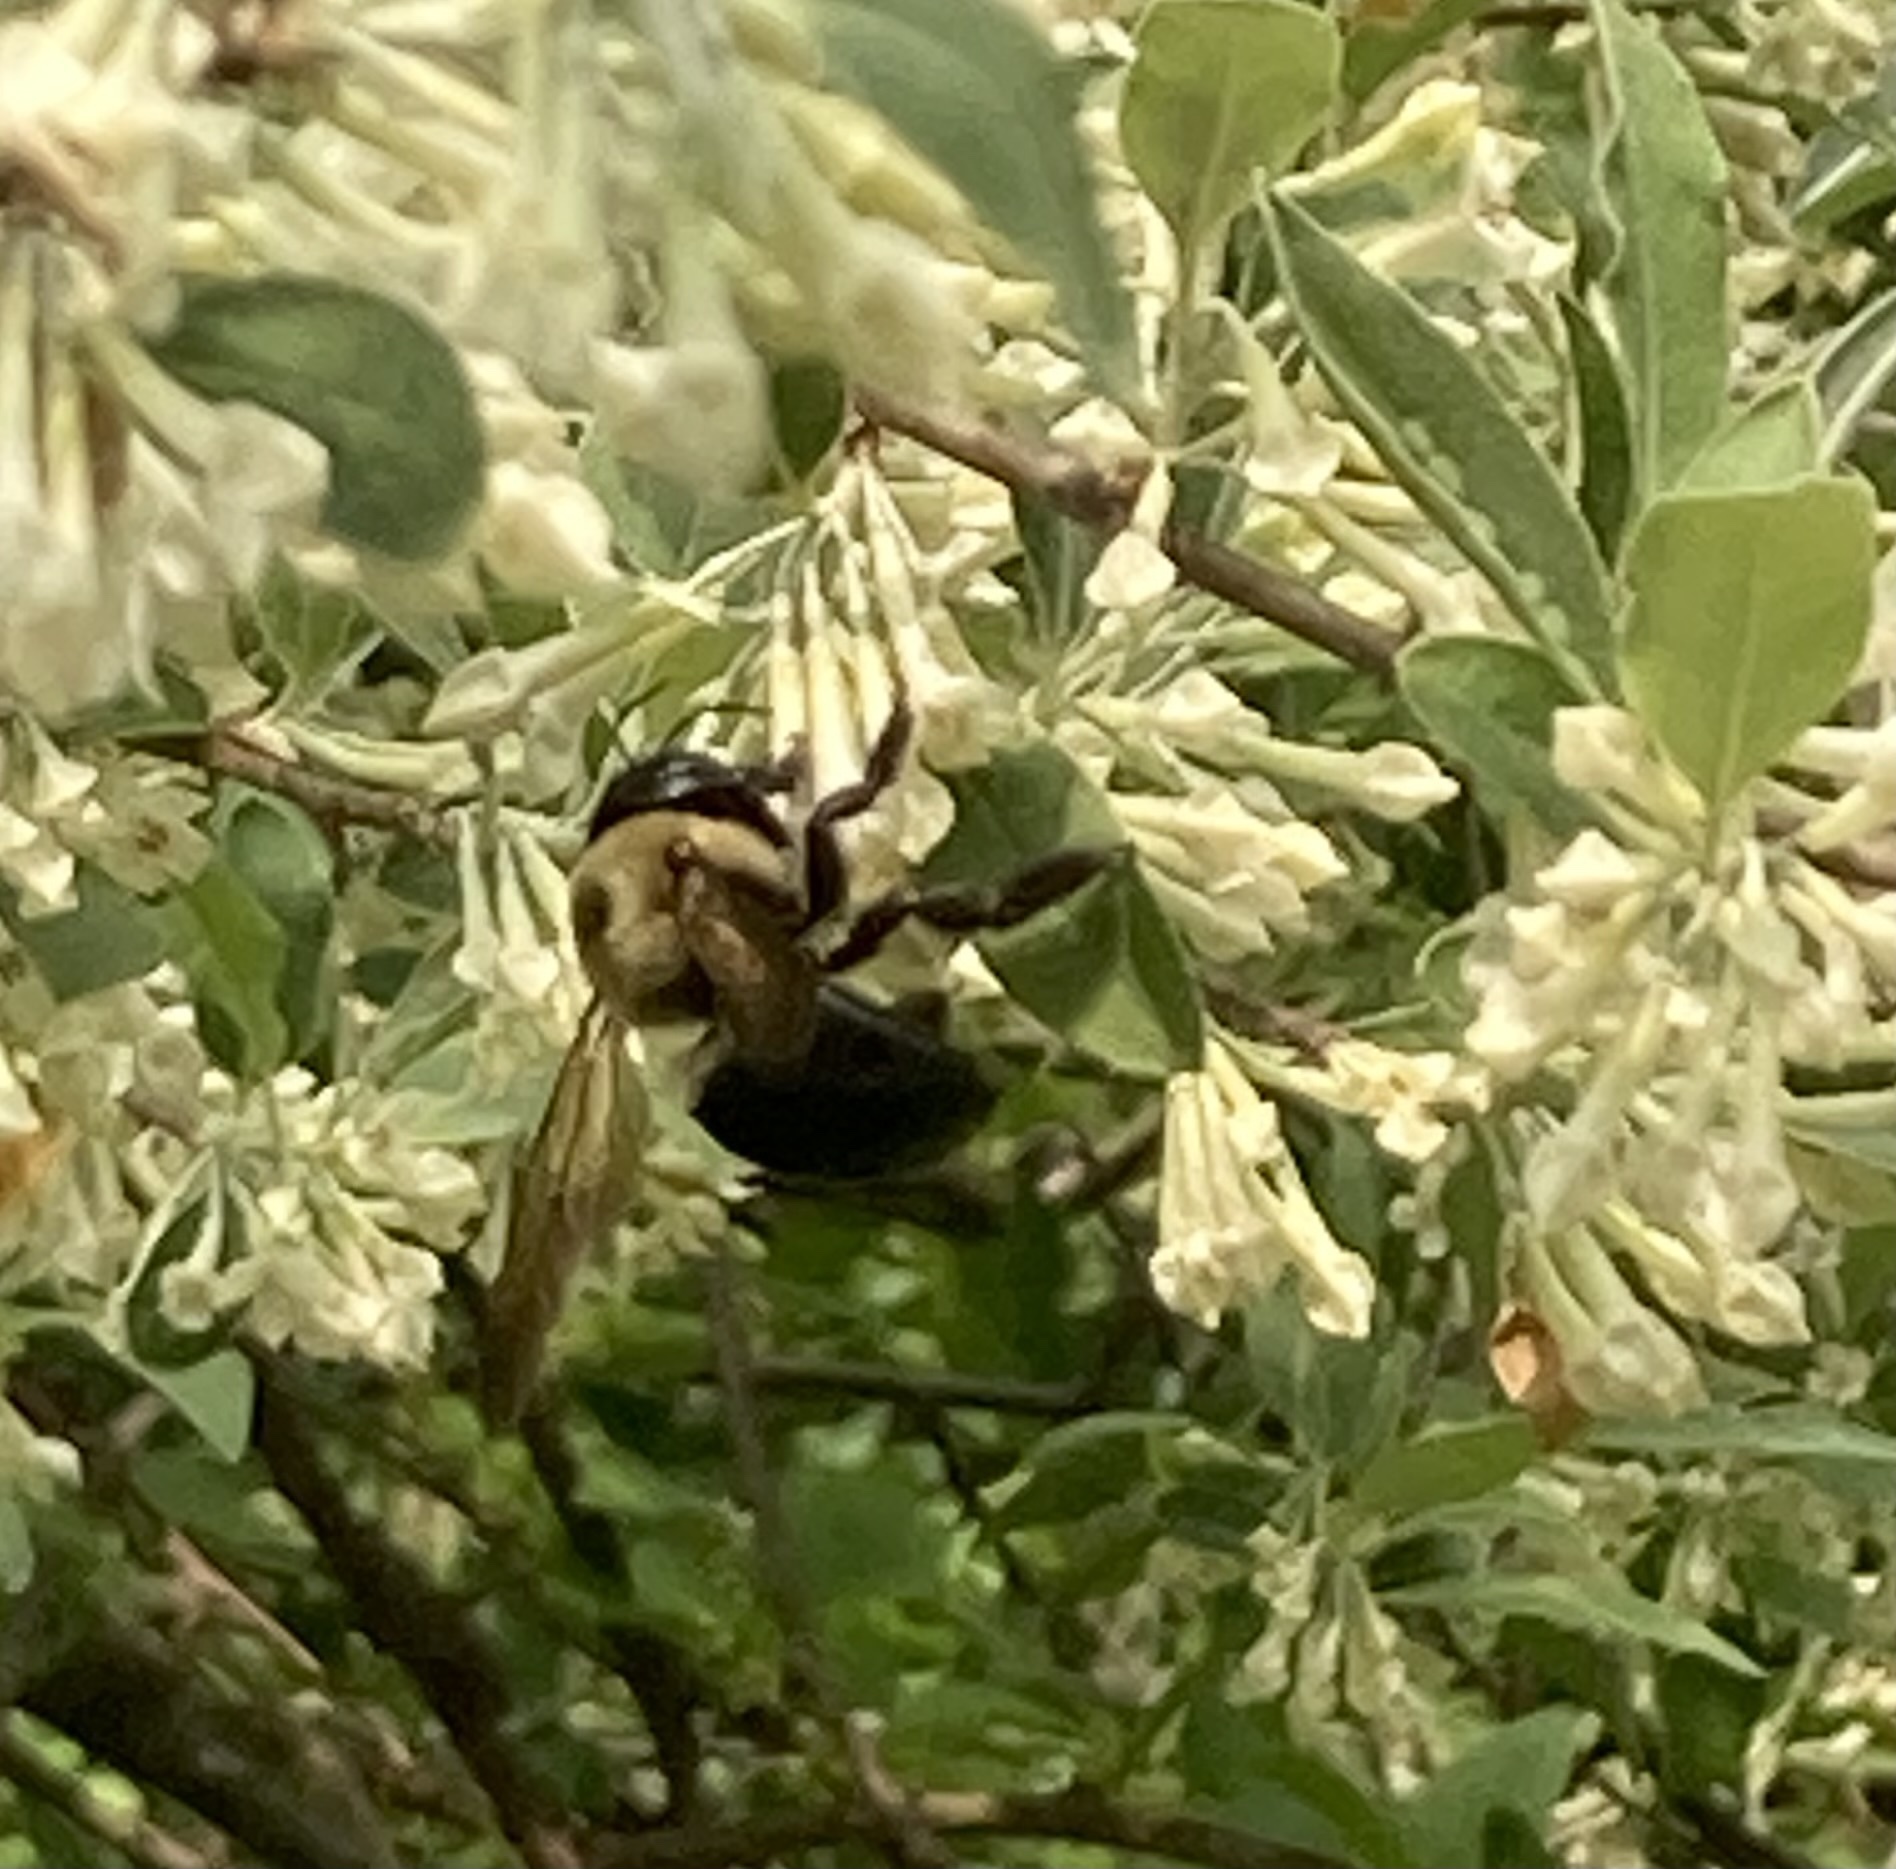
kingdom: Animalia
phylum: Arthropoda
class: Insecta
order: Hymenoptera
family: Apidae
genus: Xylocopa
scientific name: Xylocopa virginica
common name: Carpenter bee
